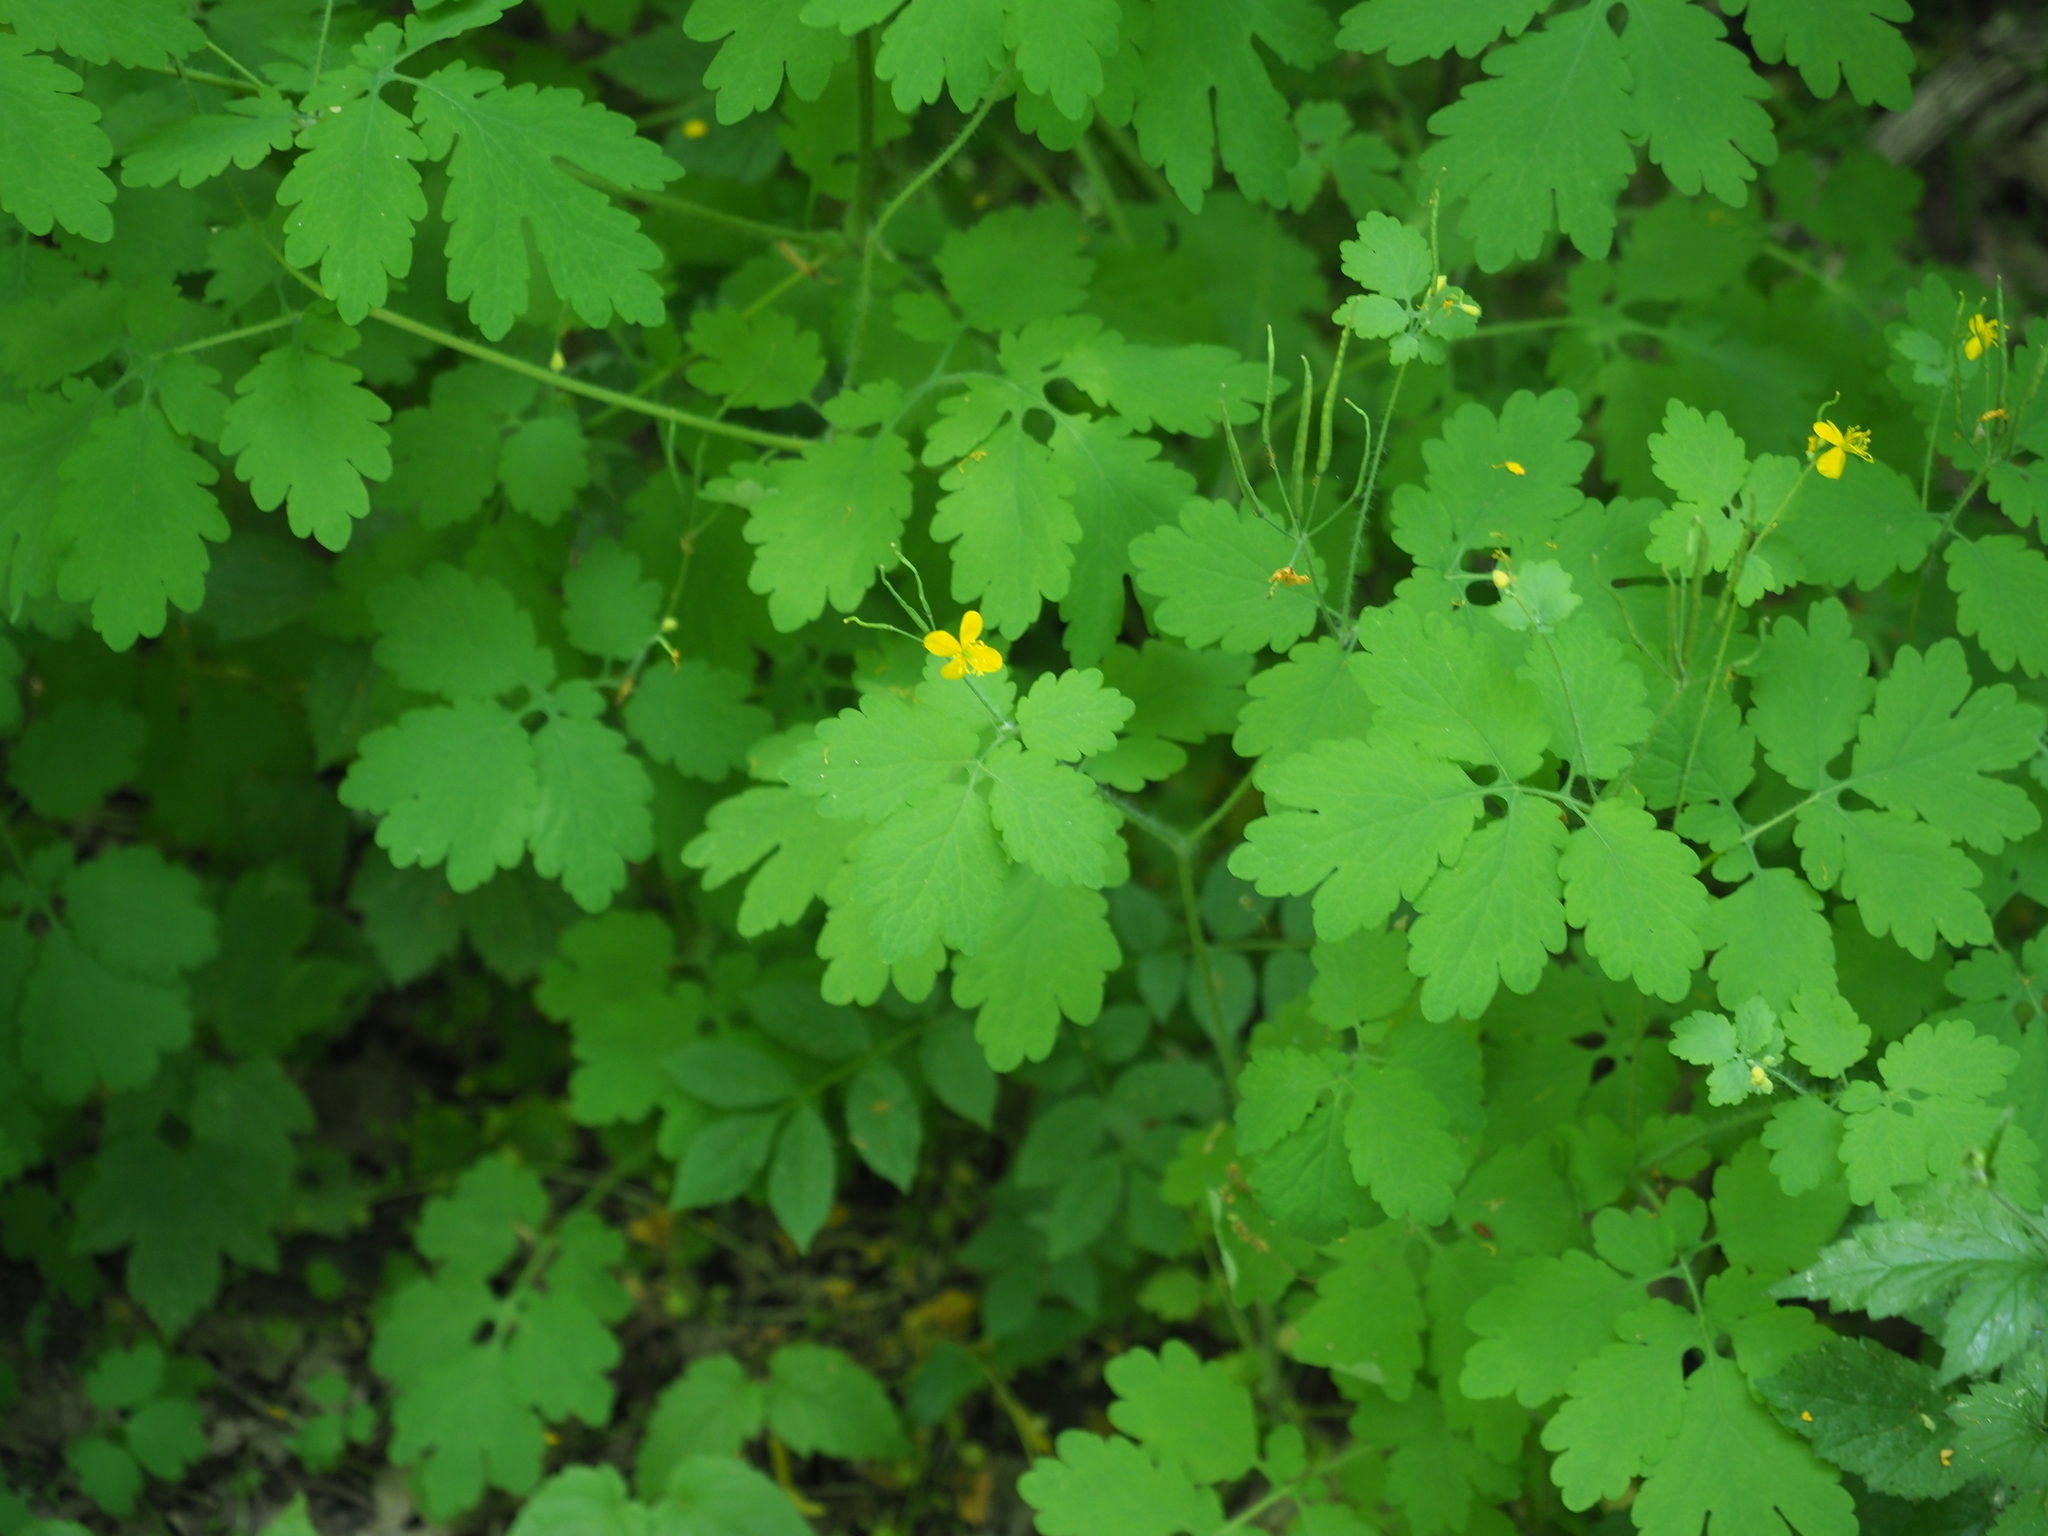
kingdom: Plantae
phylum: Tracheophyta
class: Magnoliopsida
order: Ranunculales
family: Papaveraceae
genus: Chelidonium
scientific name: Chelidonium majus
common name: Greater celandine
